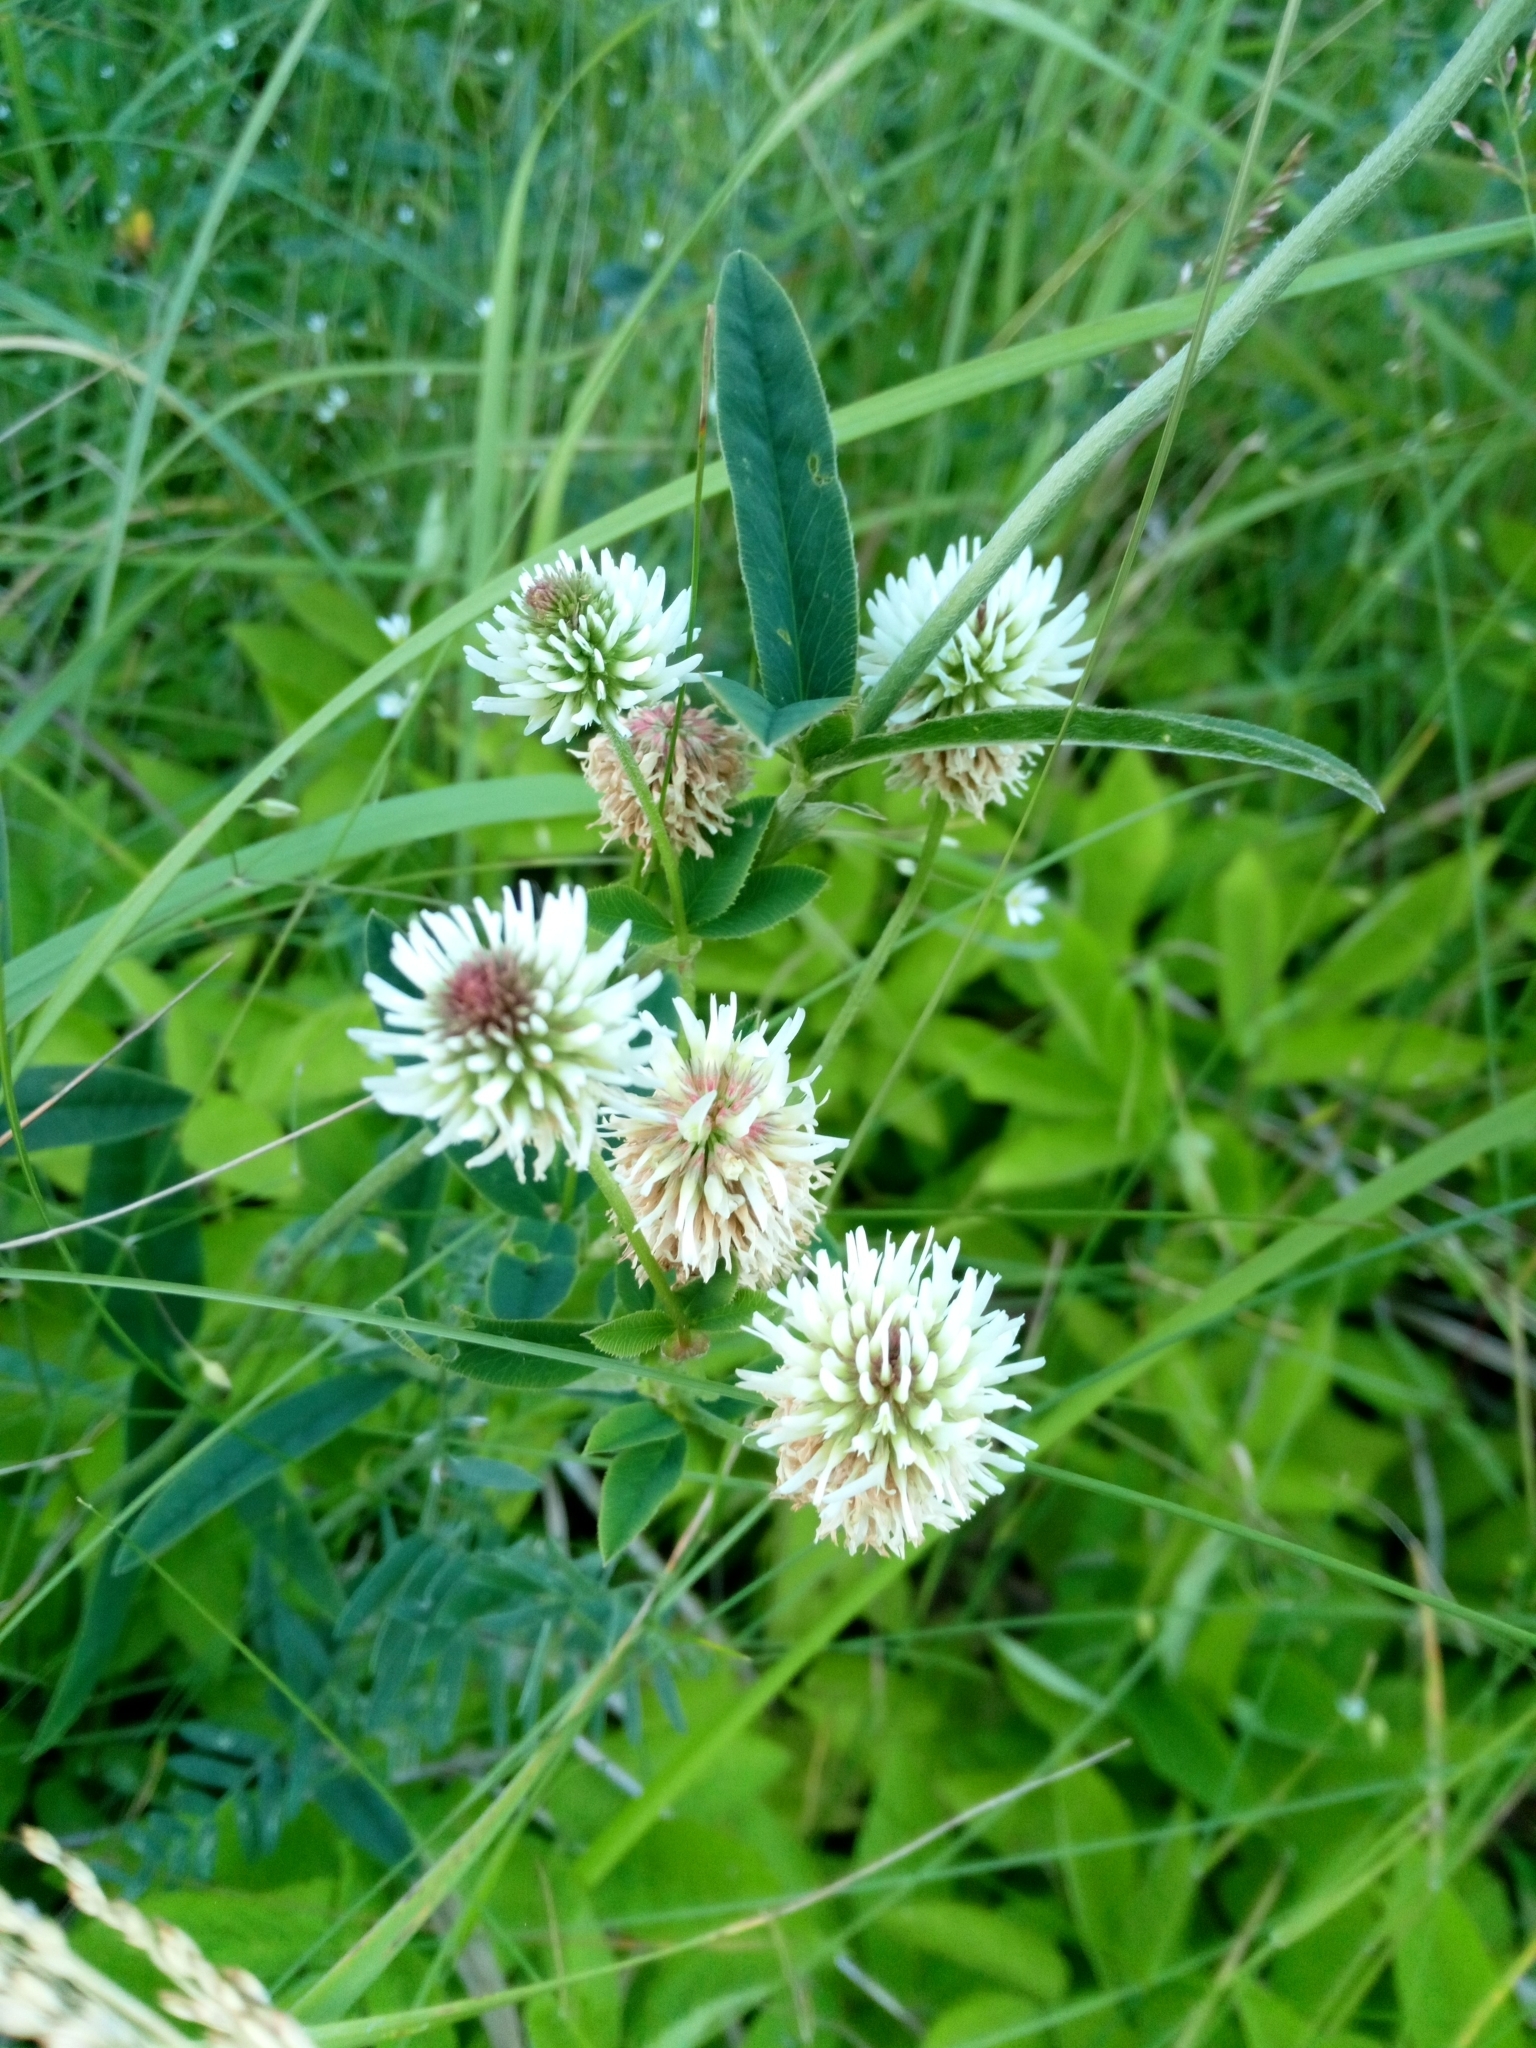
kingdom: Plantae
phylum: Tracheophyta
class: Magnoliopsida
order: Fabales
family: Fabaceae
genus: Trifolium
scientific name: Trifolium montanum
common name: Mountain clover
